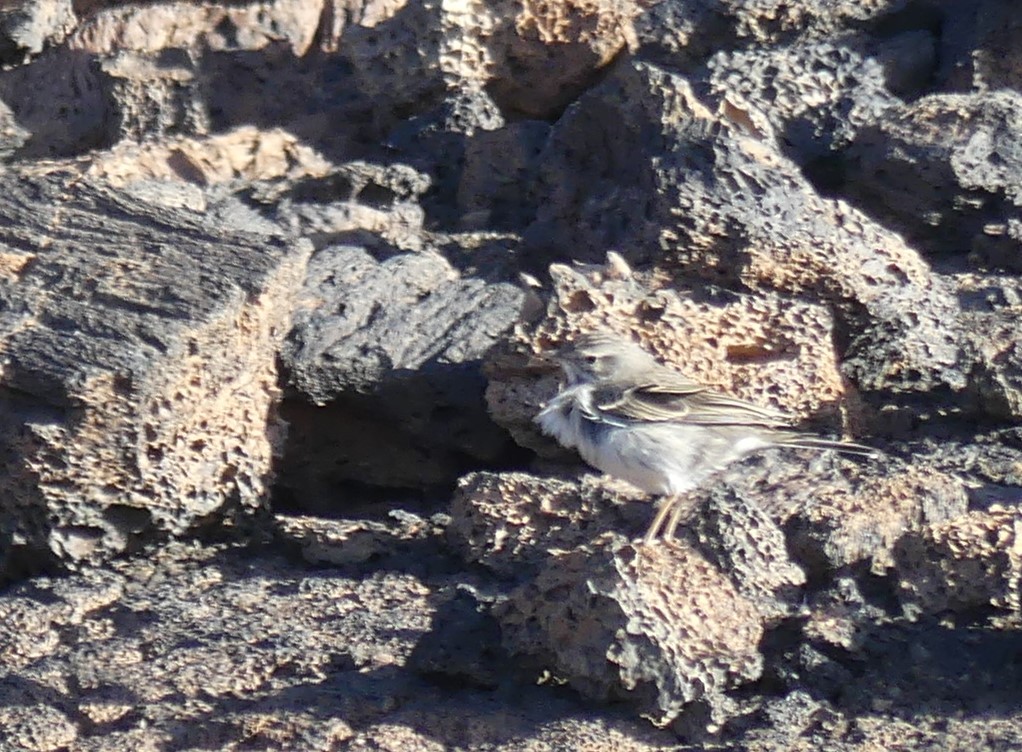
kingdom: Animalia
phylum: Chordata
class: Aves
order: Passeriformes
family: Motacillidae
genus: Anthus
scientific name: Anthus berthelotii
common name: Berthelot's pipit
